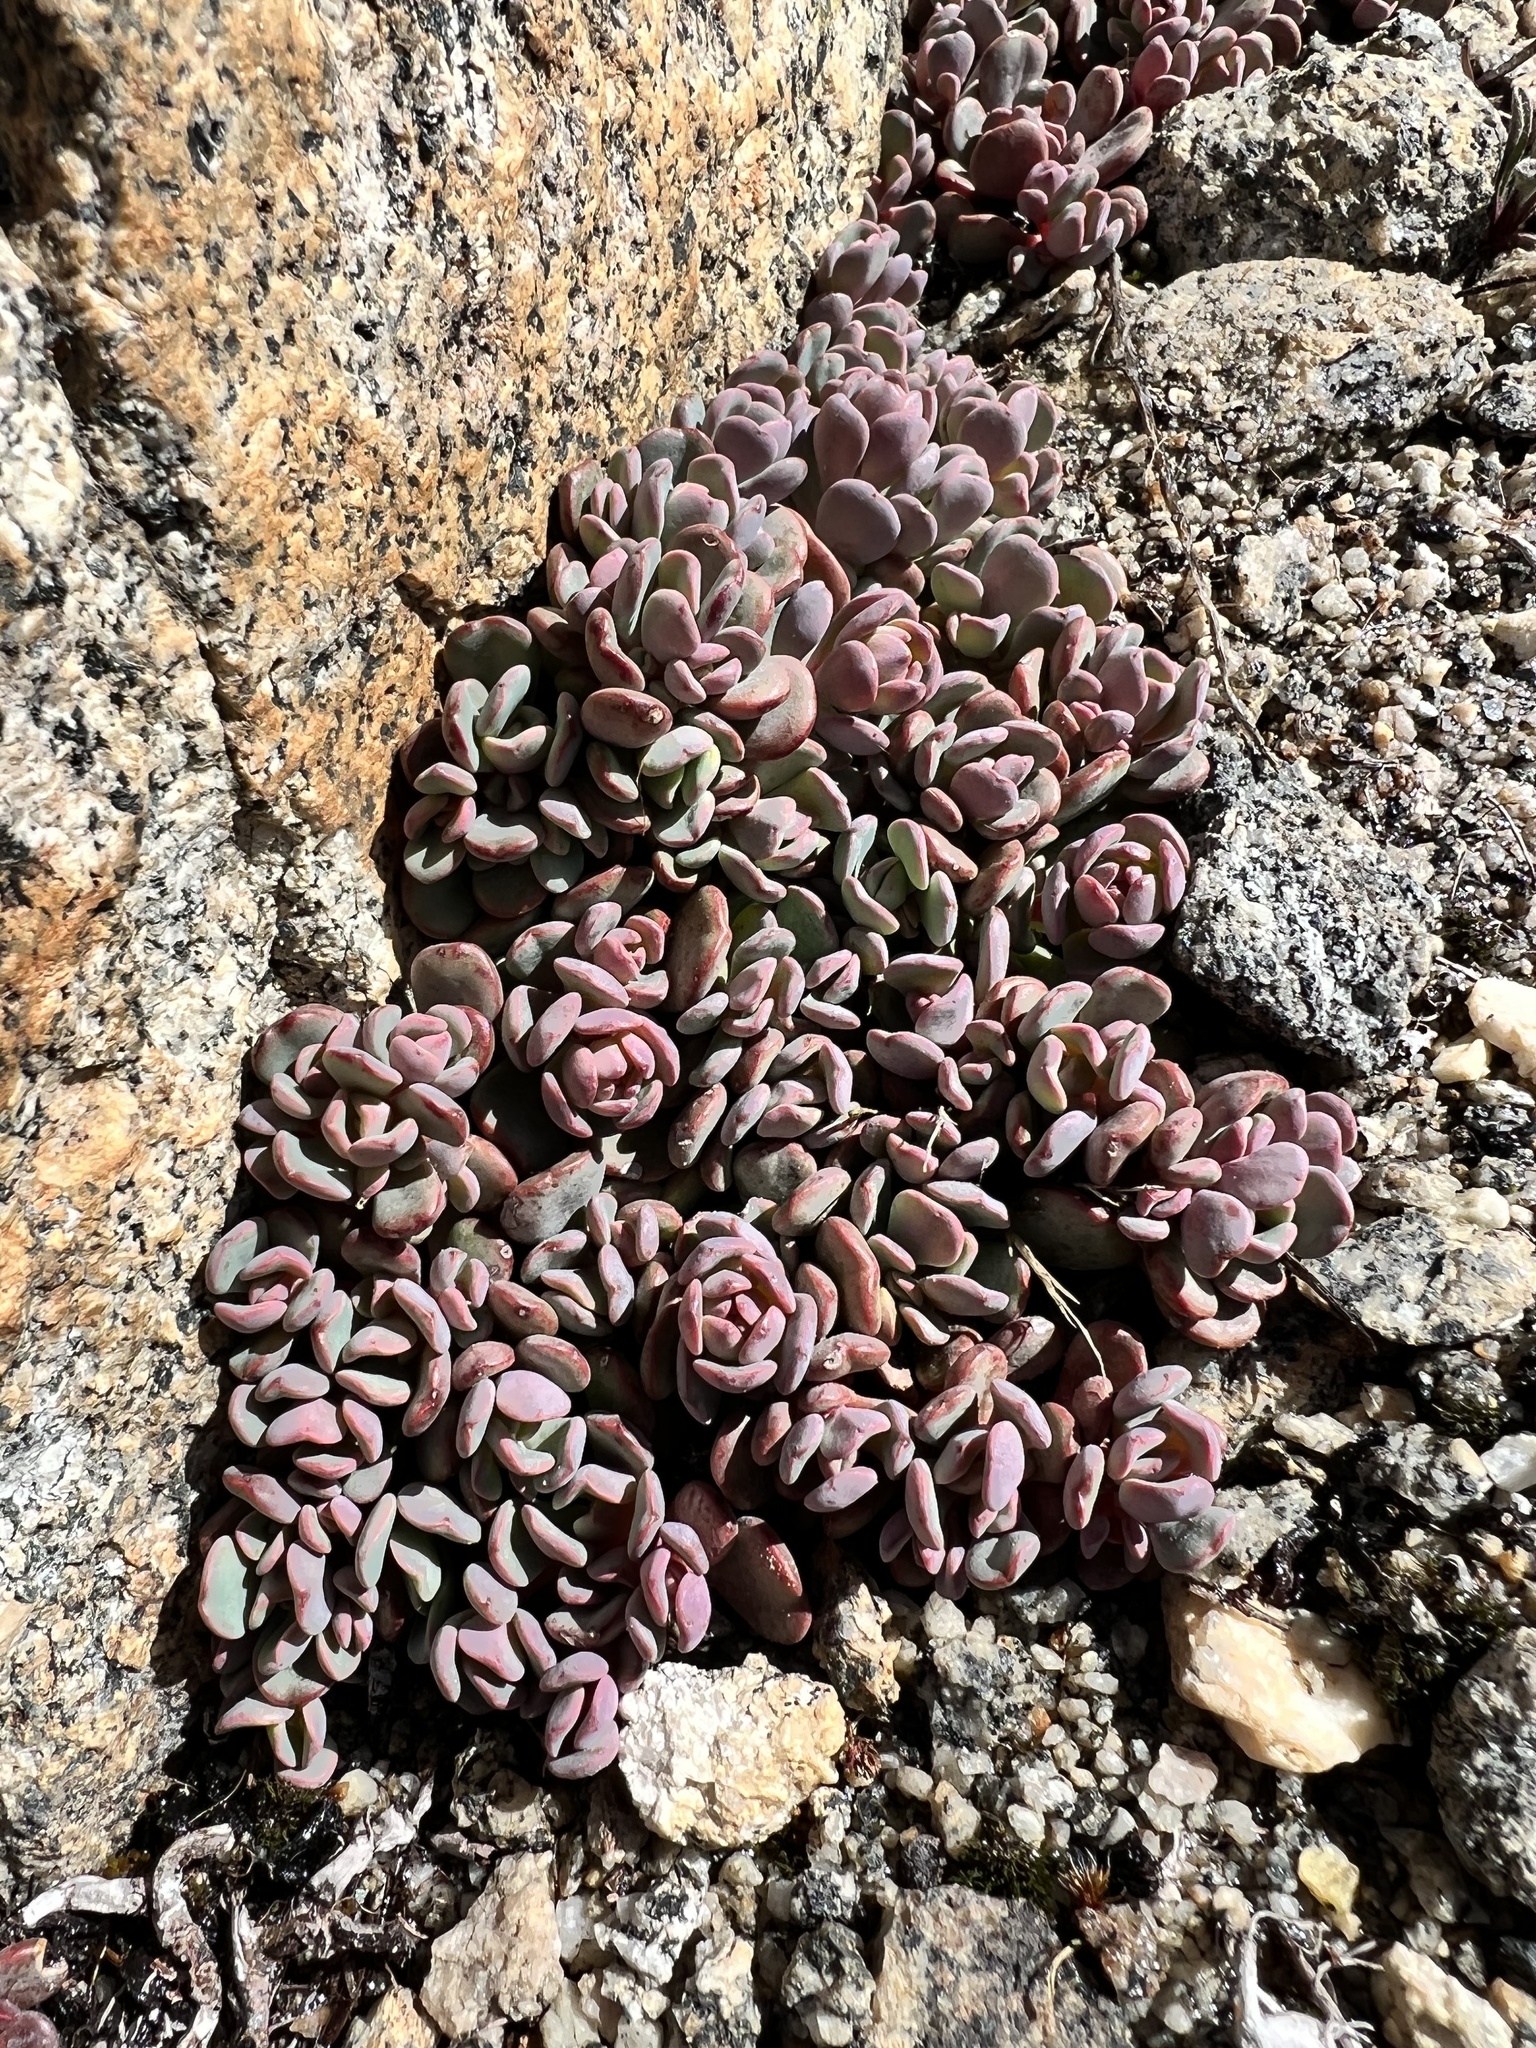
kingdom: Plantae
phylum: Tracheophyta
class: Magnoliopsida
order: Saxifragales
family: Crassulaceae
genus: Sedum
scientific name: Sedum obtusatum
